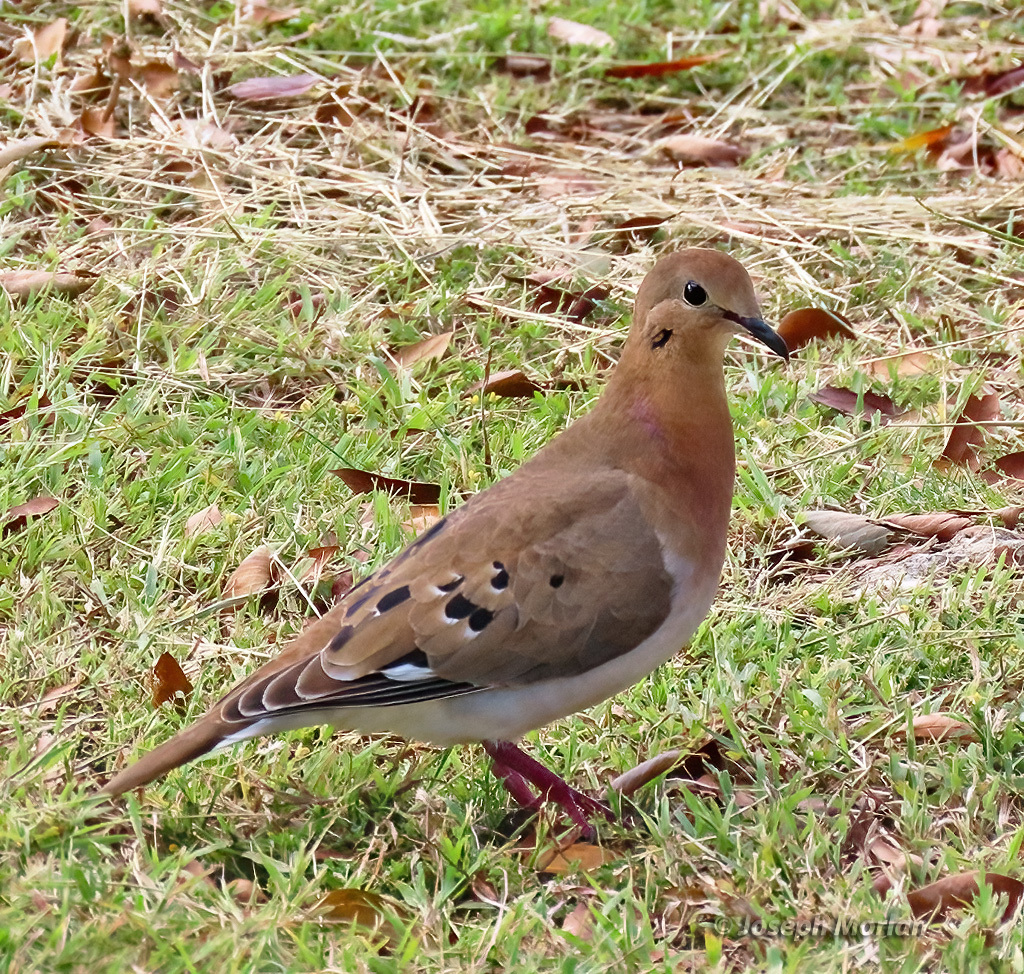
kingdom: Animalia
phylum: Chordata
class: Aves
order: Columbiformes
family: Columbidae
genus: Zenaida
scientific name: Zenaida aurita
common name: Zenaida dove
